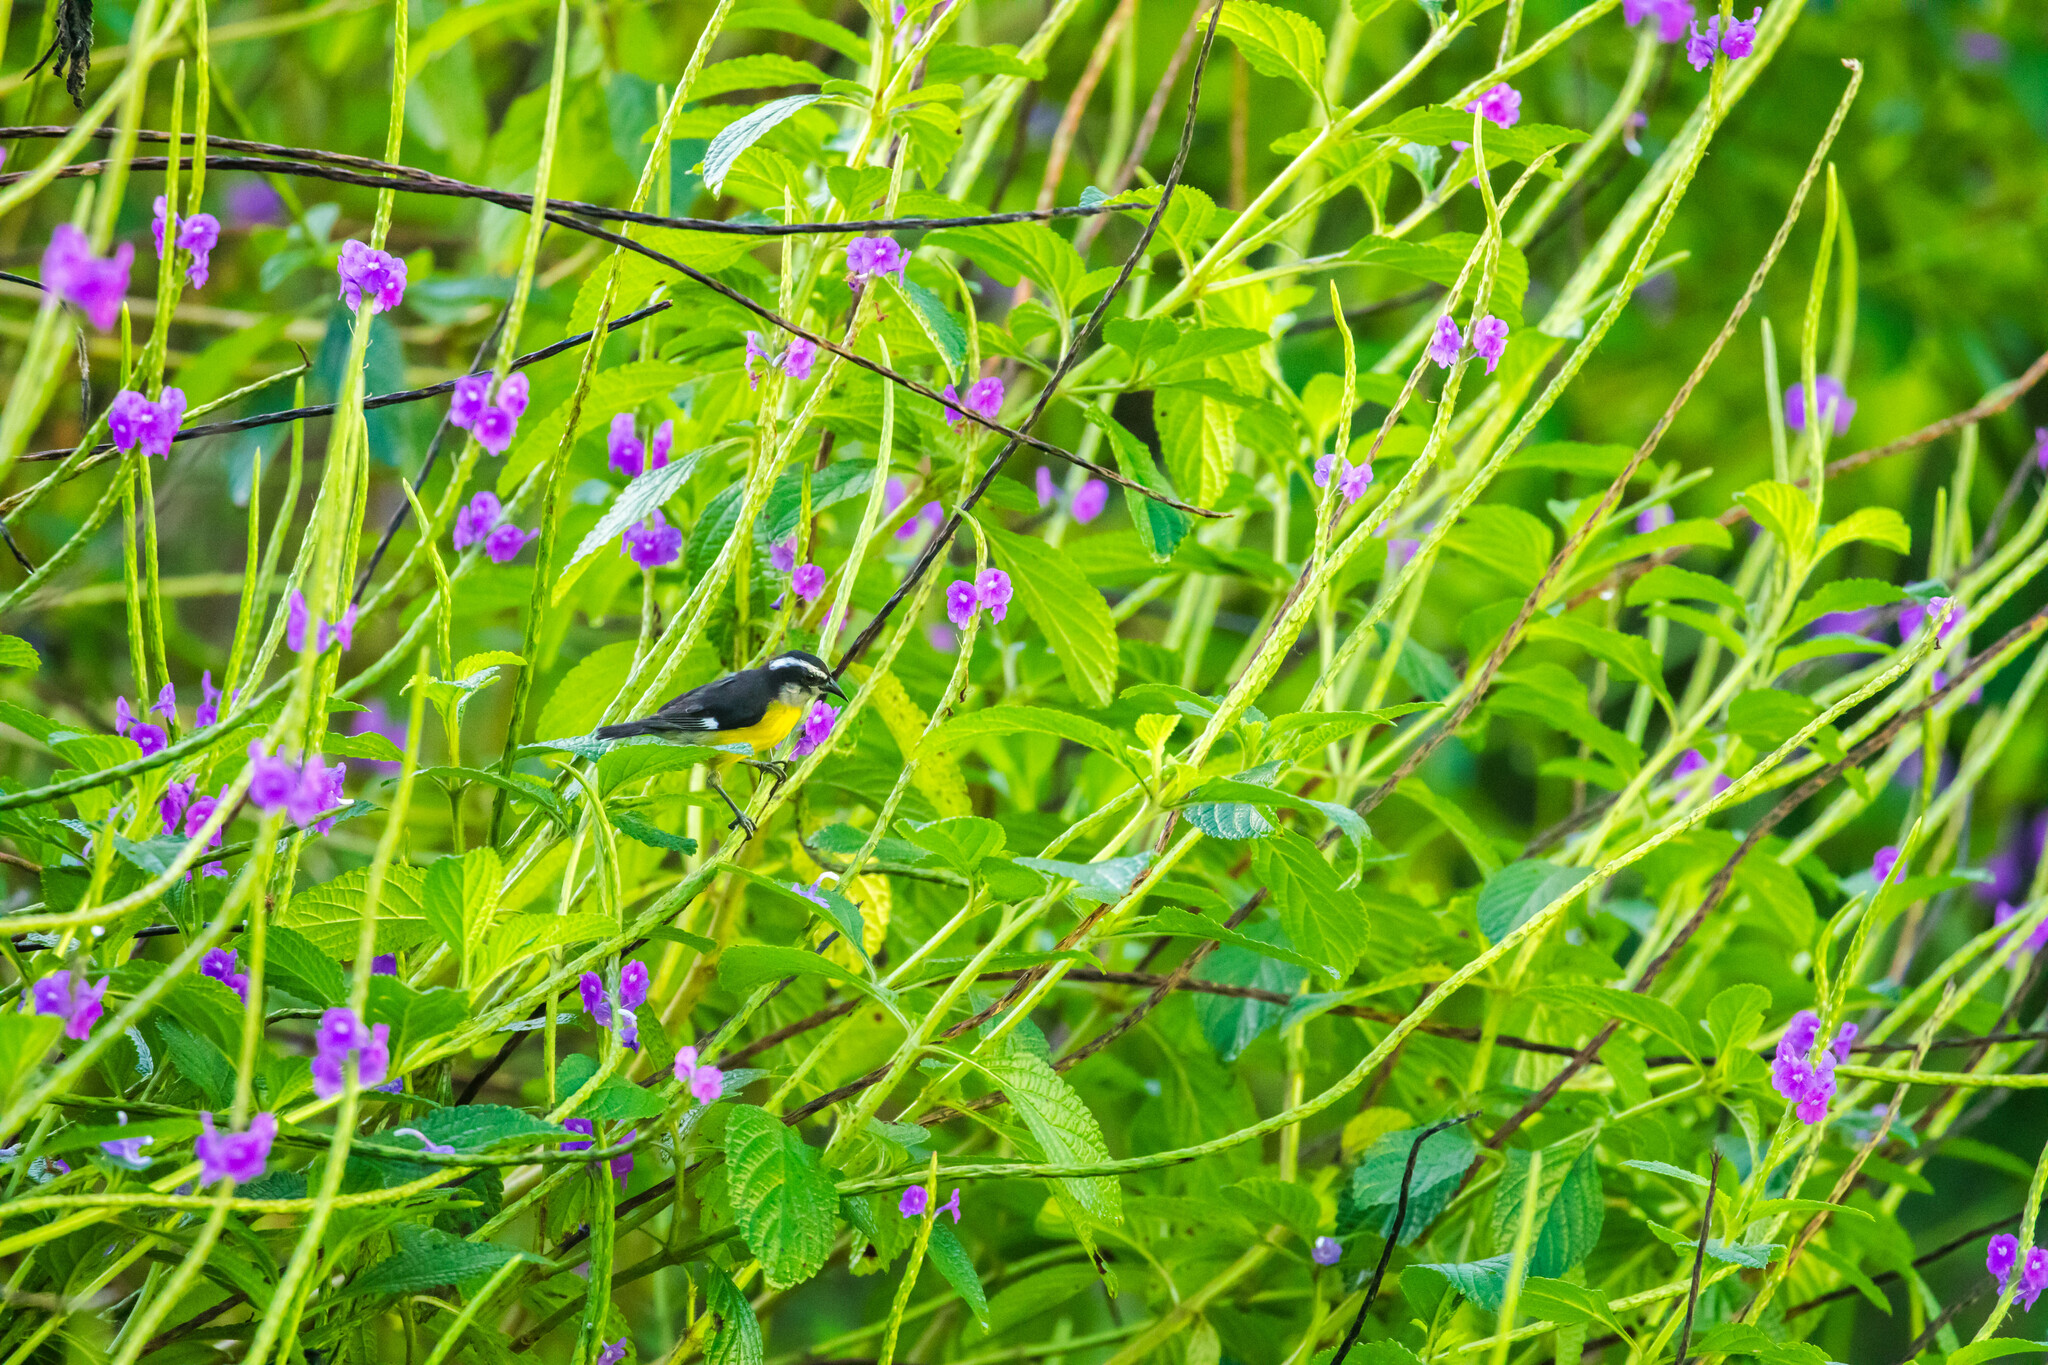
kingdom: Animalia
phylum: Chordata
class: Aves
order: Passeriformes
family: Thraupidae
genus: Coereba
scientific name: Coereba flaveola
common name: Bananaquit
